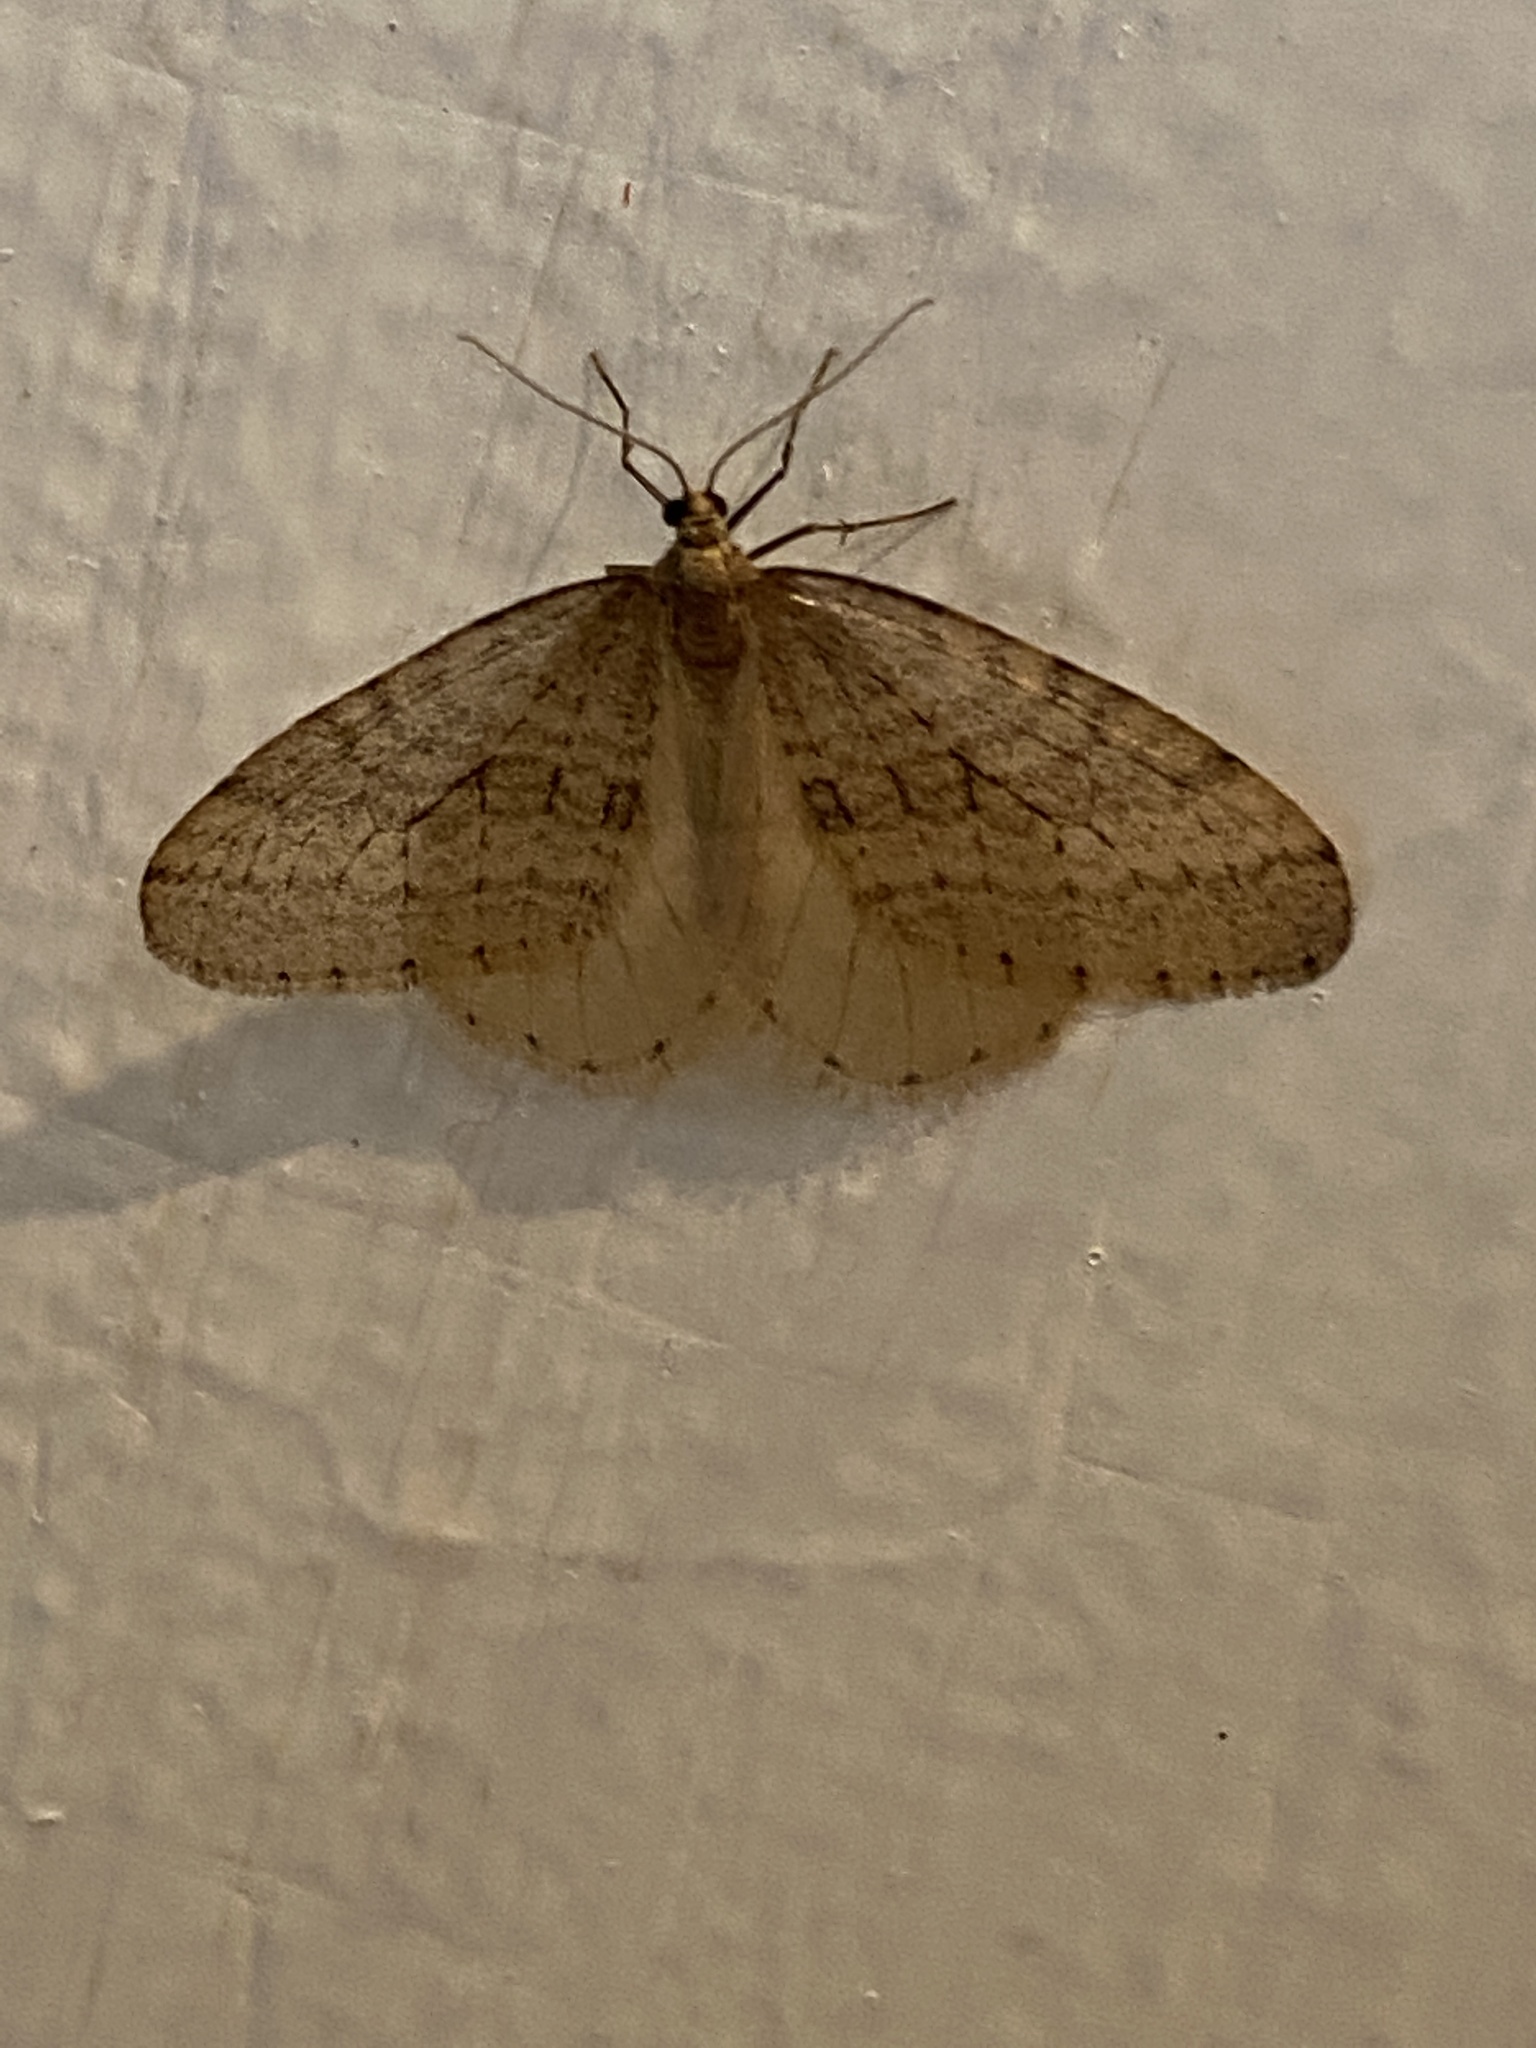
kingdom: Animalia
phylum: Arthropoda
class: Insecta
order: Lepidoptera
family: Geometridae
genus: Operophtera
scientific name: Operophtera bruceata
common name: Bruce spanworm
